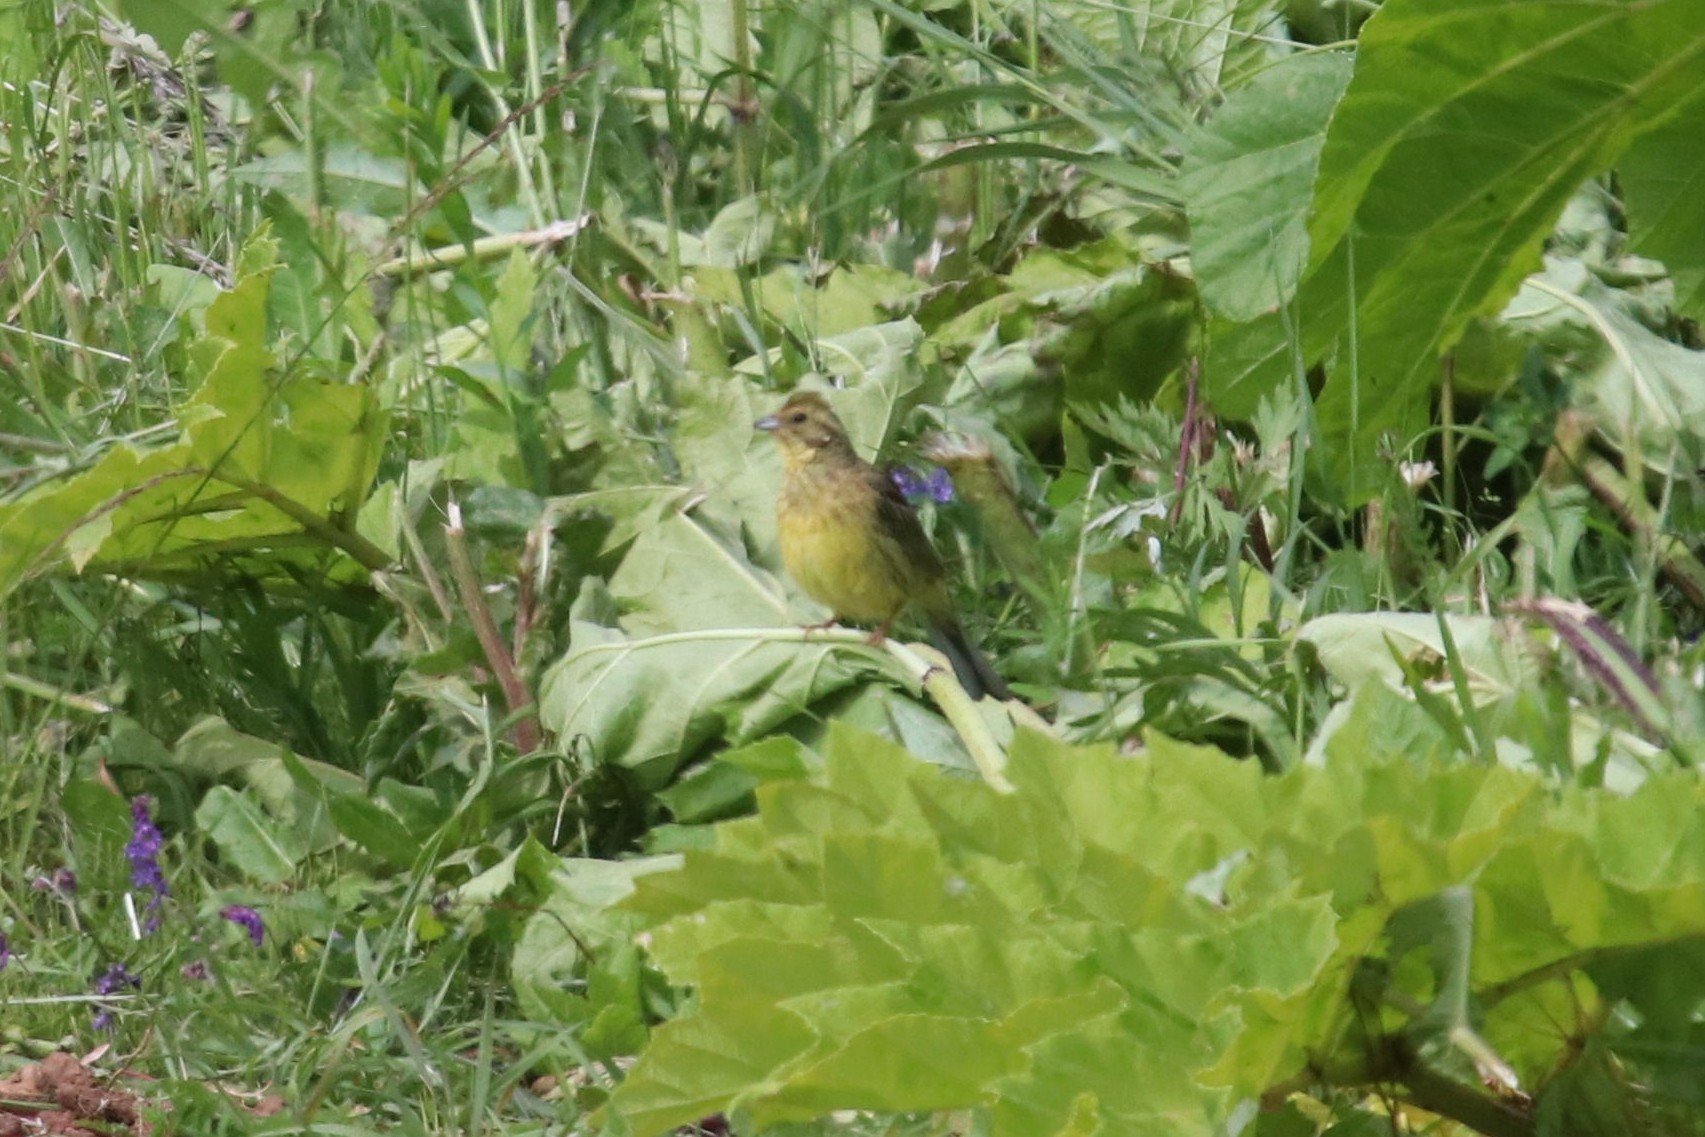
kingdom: Animalia
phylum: Chordata
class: Aves
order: Passeriformes
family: Emberizidae
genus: Emberiza
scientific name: Emberiza citrinella
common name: Yellowhammer
